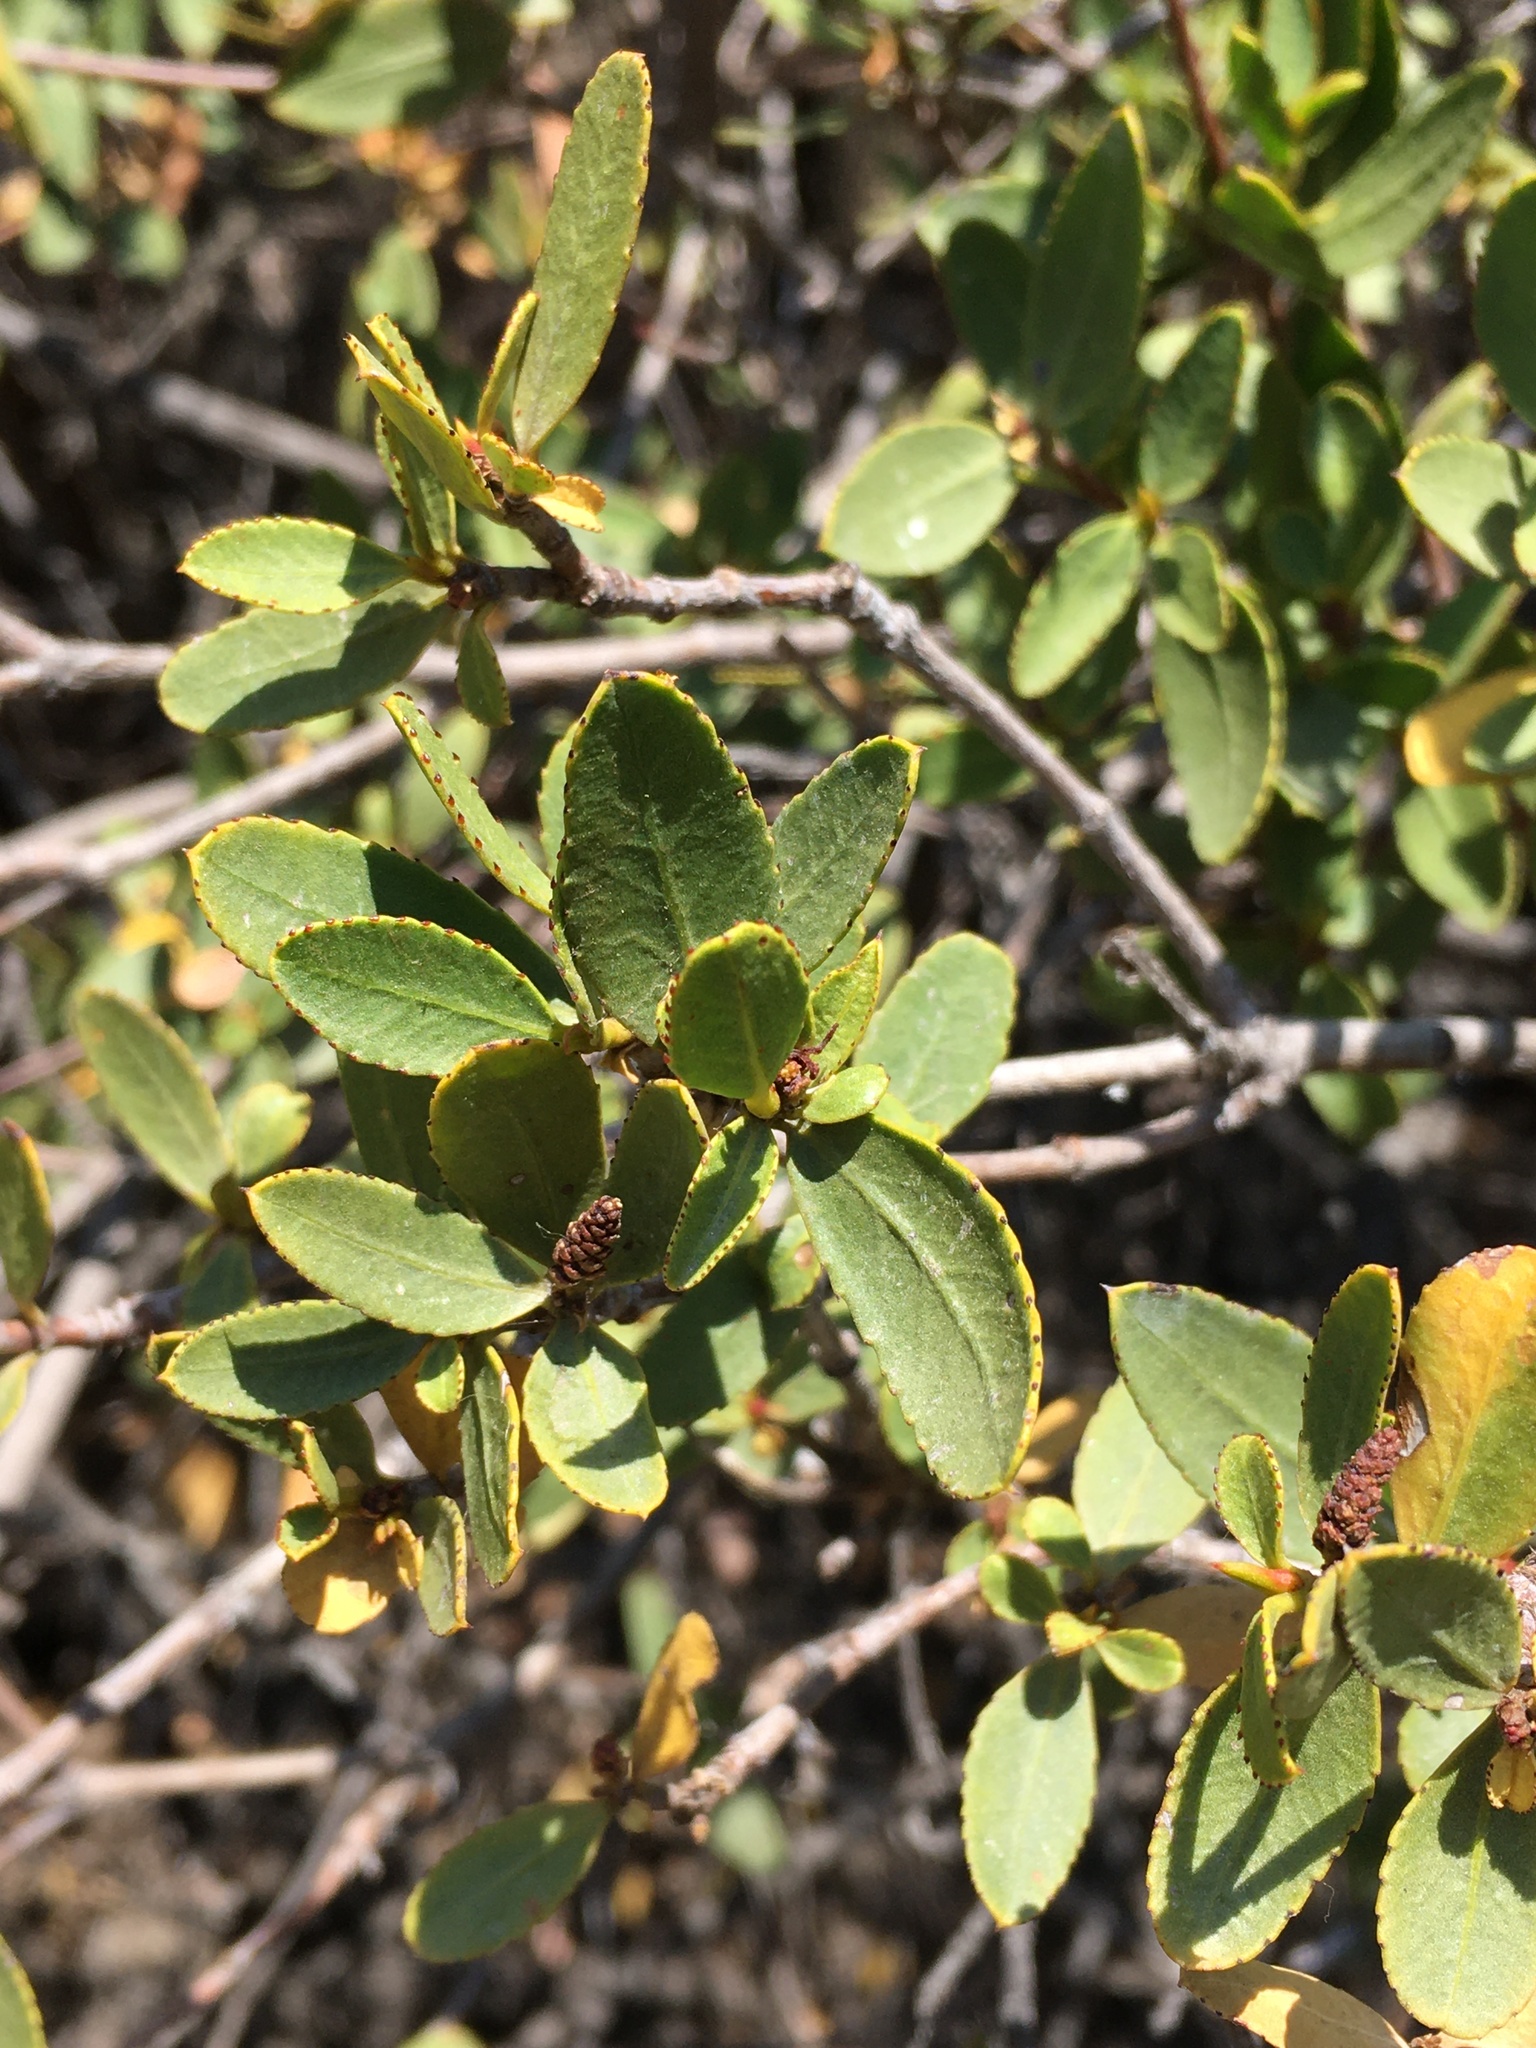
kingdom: Plantae
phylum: Tracheophyta
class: Magnoliopsida
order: Malpighiales
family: Euphorbiaceae
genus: Colliguaja
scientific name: Colliguaja odorifera
